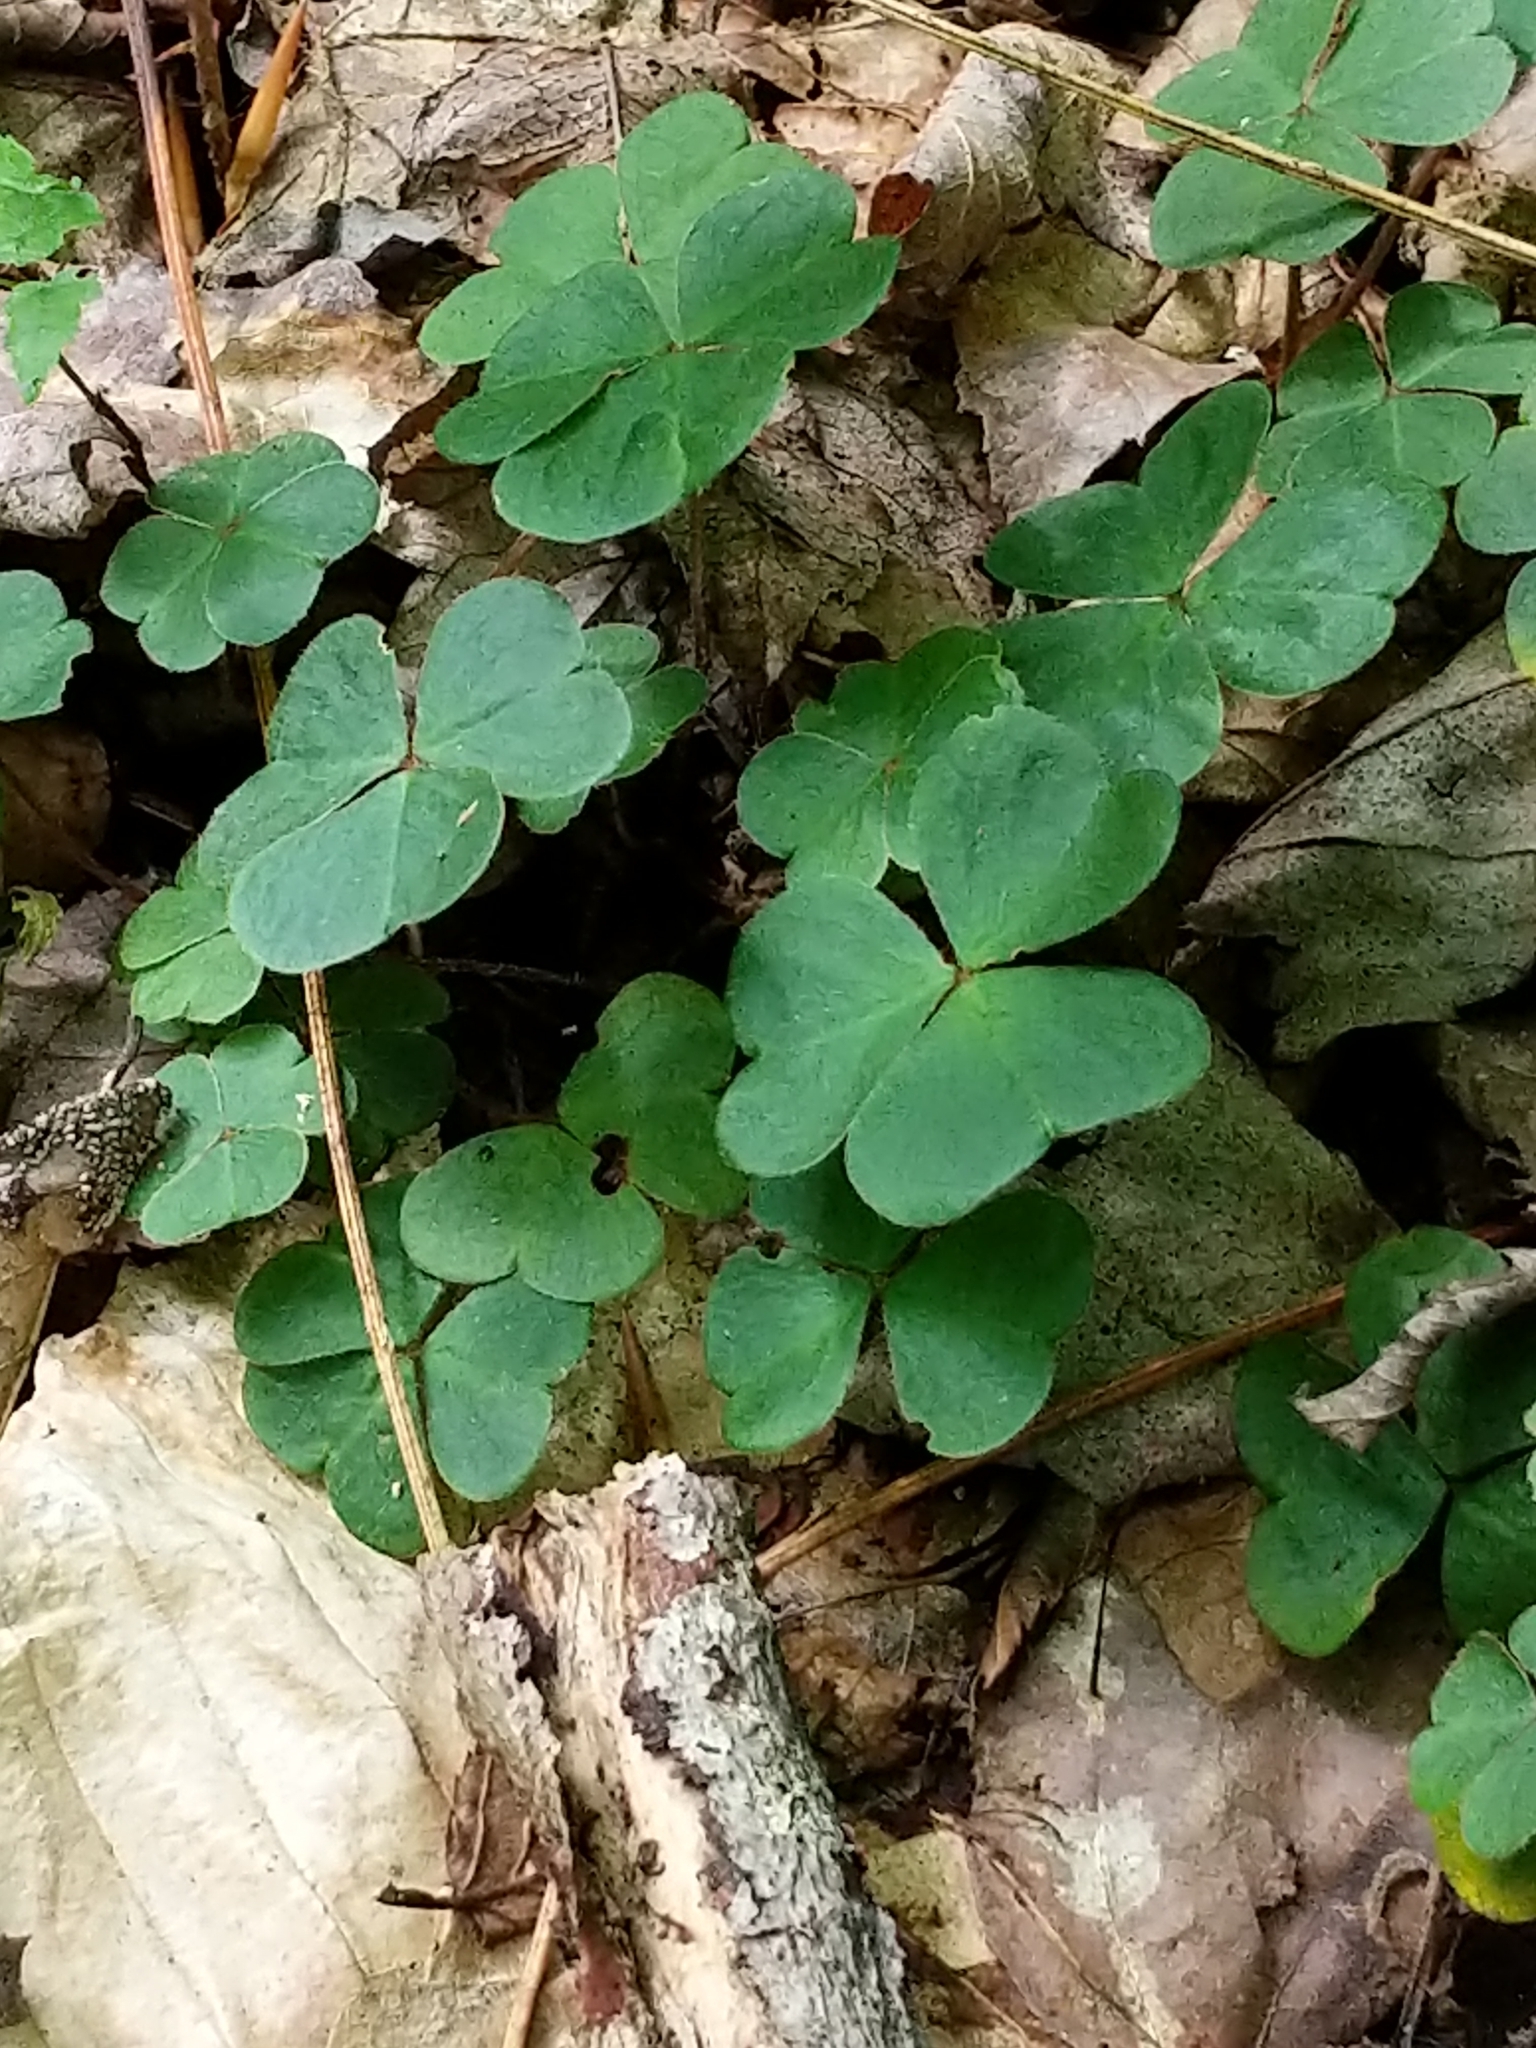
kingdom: Plantae
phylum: Tracheophyta
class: Magnoliopsida
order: Oxalidales
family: Oxalidaceae
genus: Oxalis
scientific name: Oxalis montana
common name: American wood-sorrel
